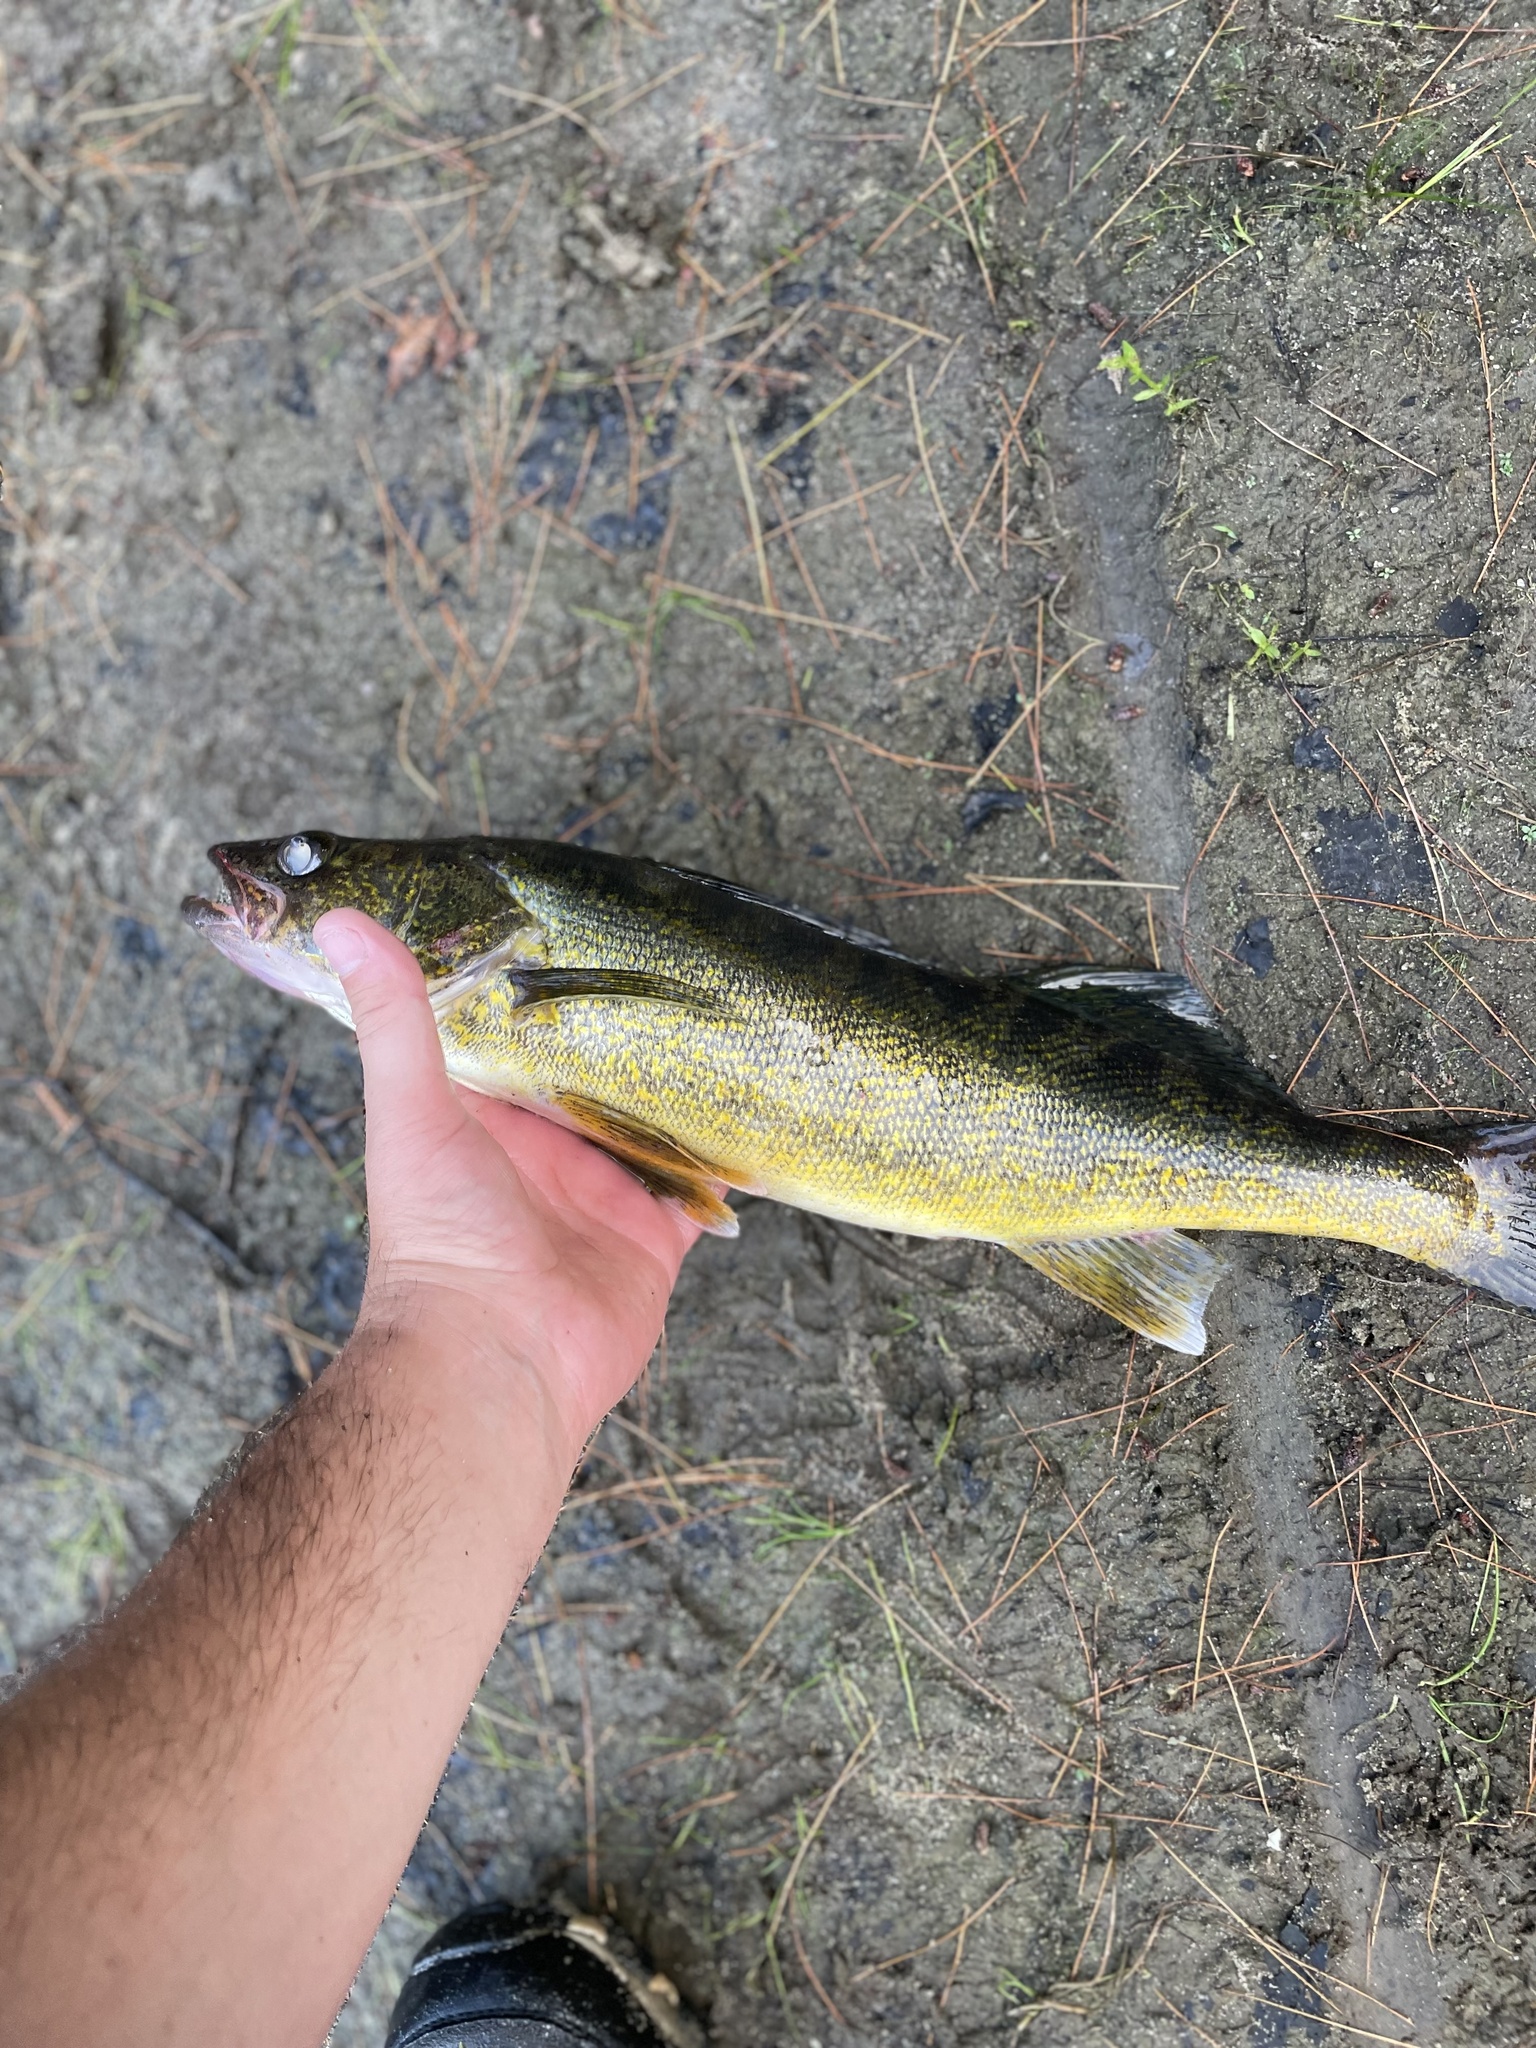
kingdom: Animalia
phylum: Chordata
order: Perciformes
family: Percidae
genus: Sander
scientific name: Sander vitreus
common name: Walleye
